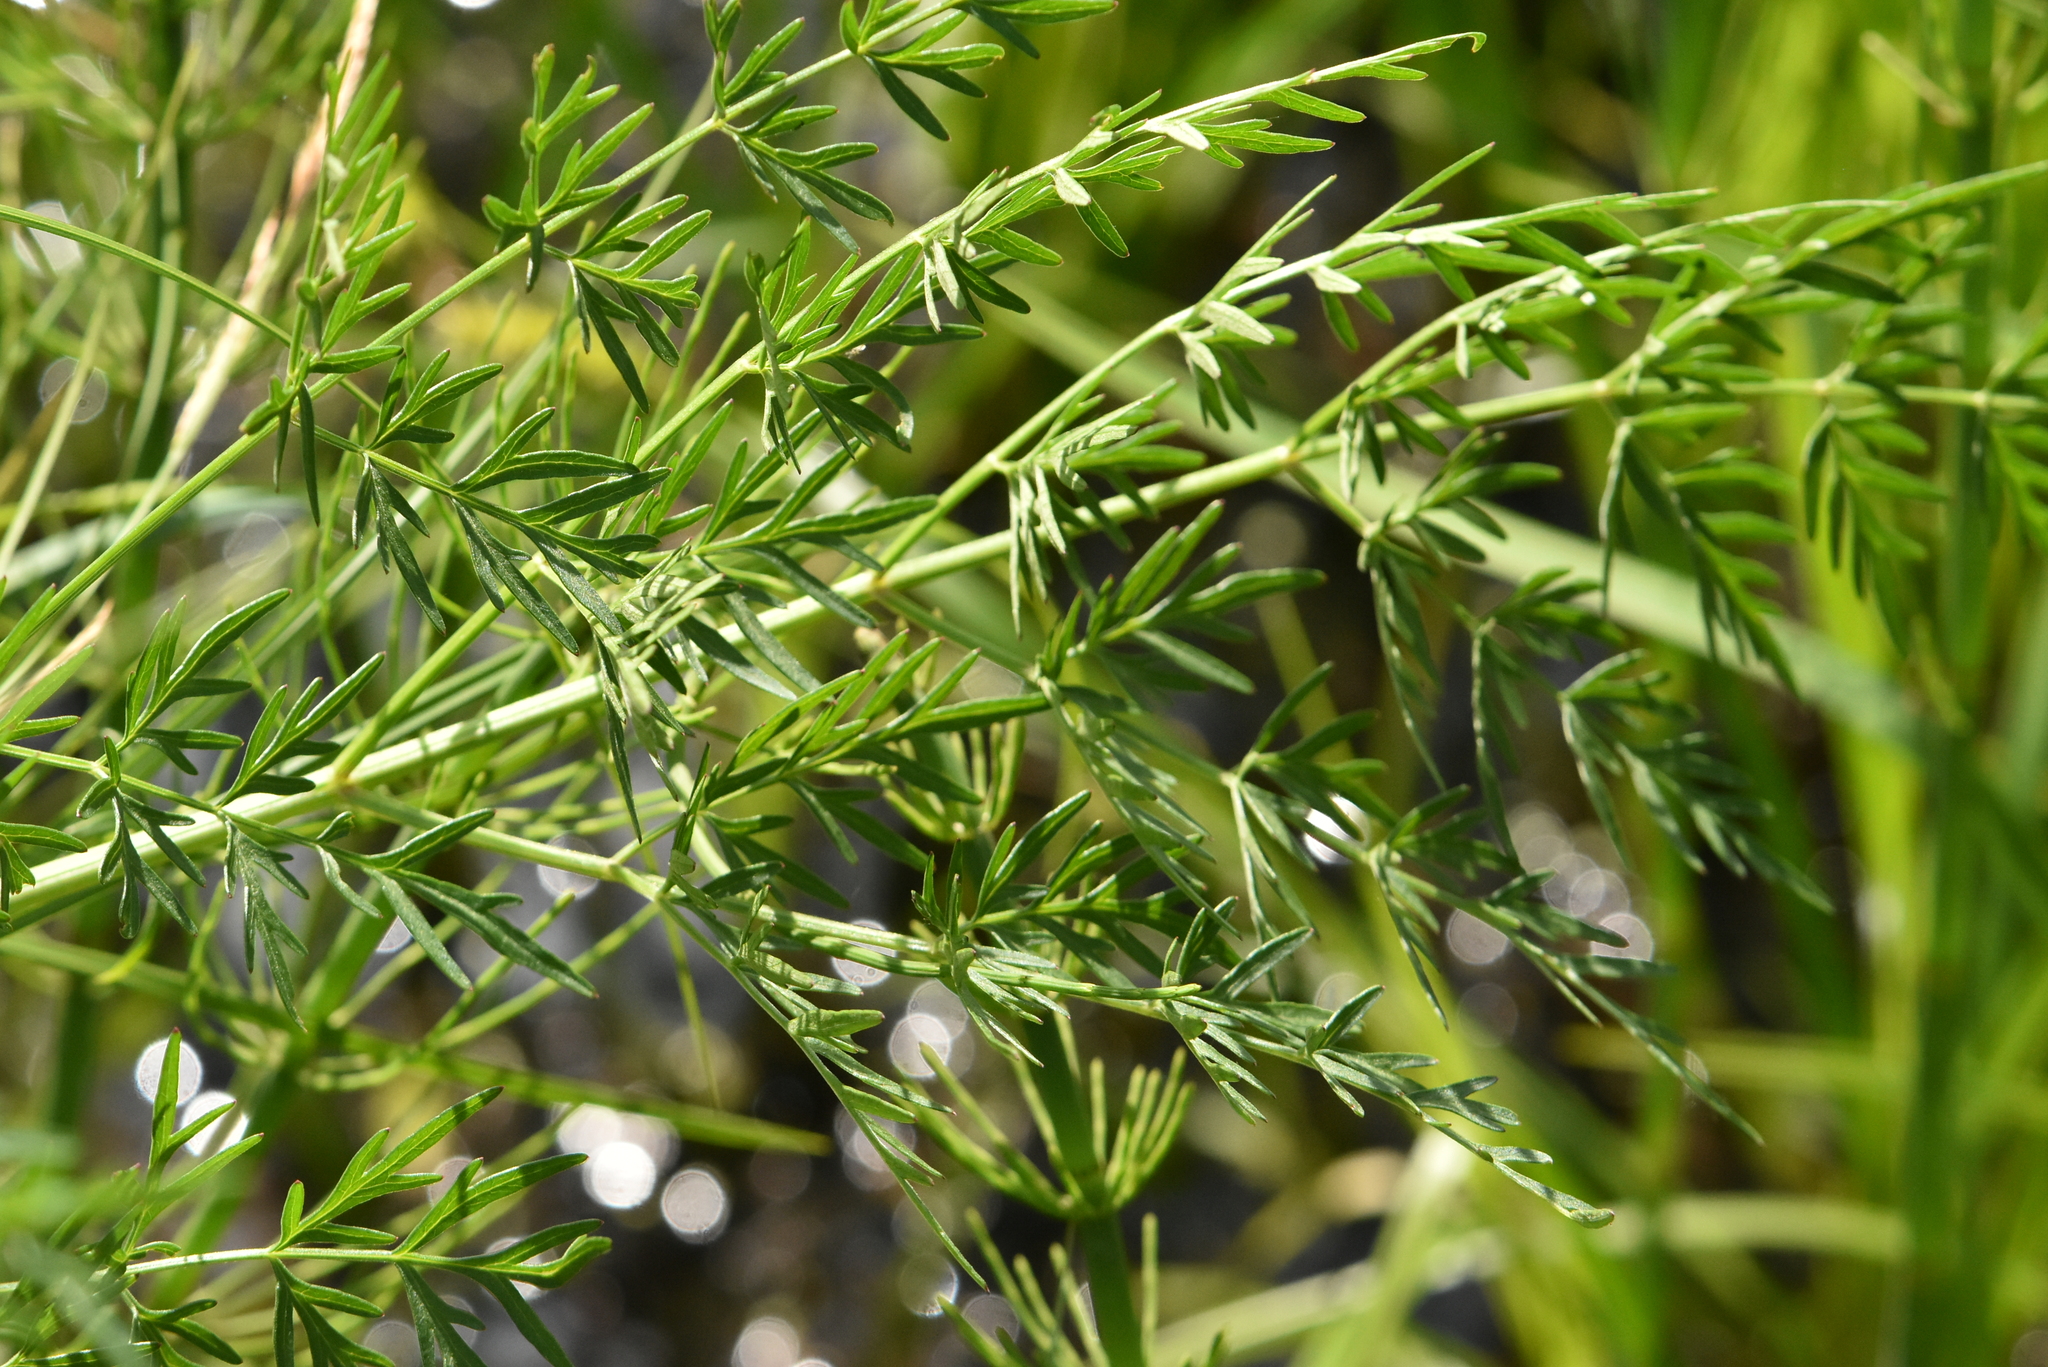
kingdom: Plantae
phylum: Tracheophyta
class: Magnoliopsida
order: Ranunculales
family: Ranunculaceae
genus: Thalictrum
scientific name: Thalictrum lucidum
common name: Shining meadow-rue
